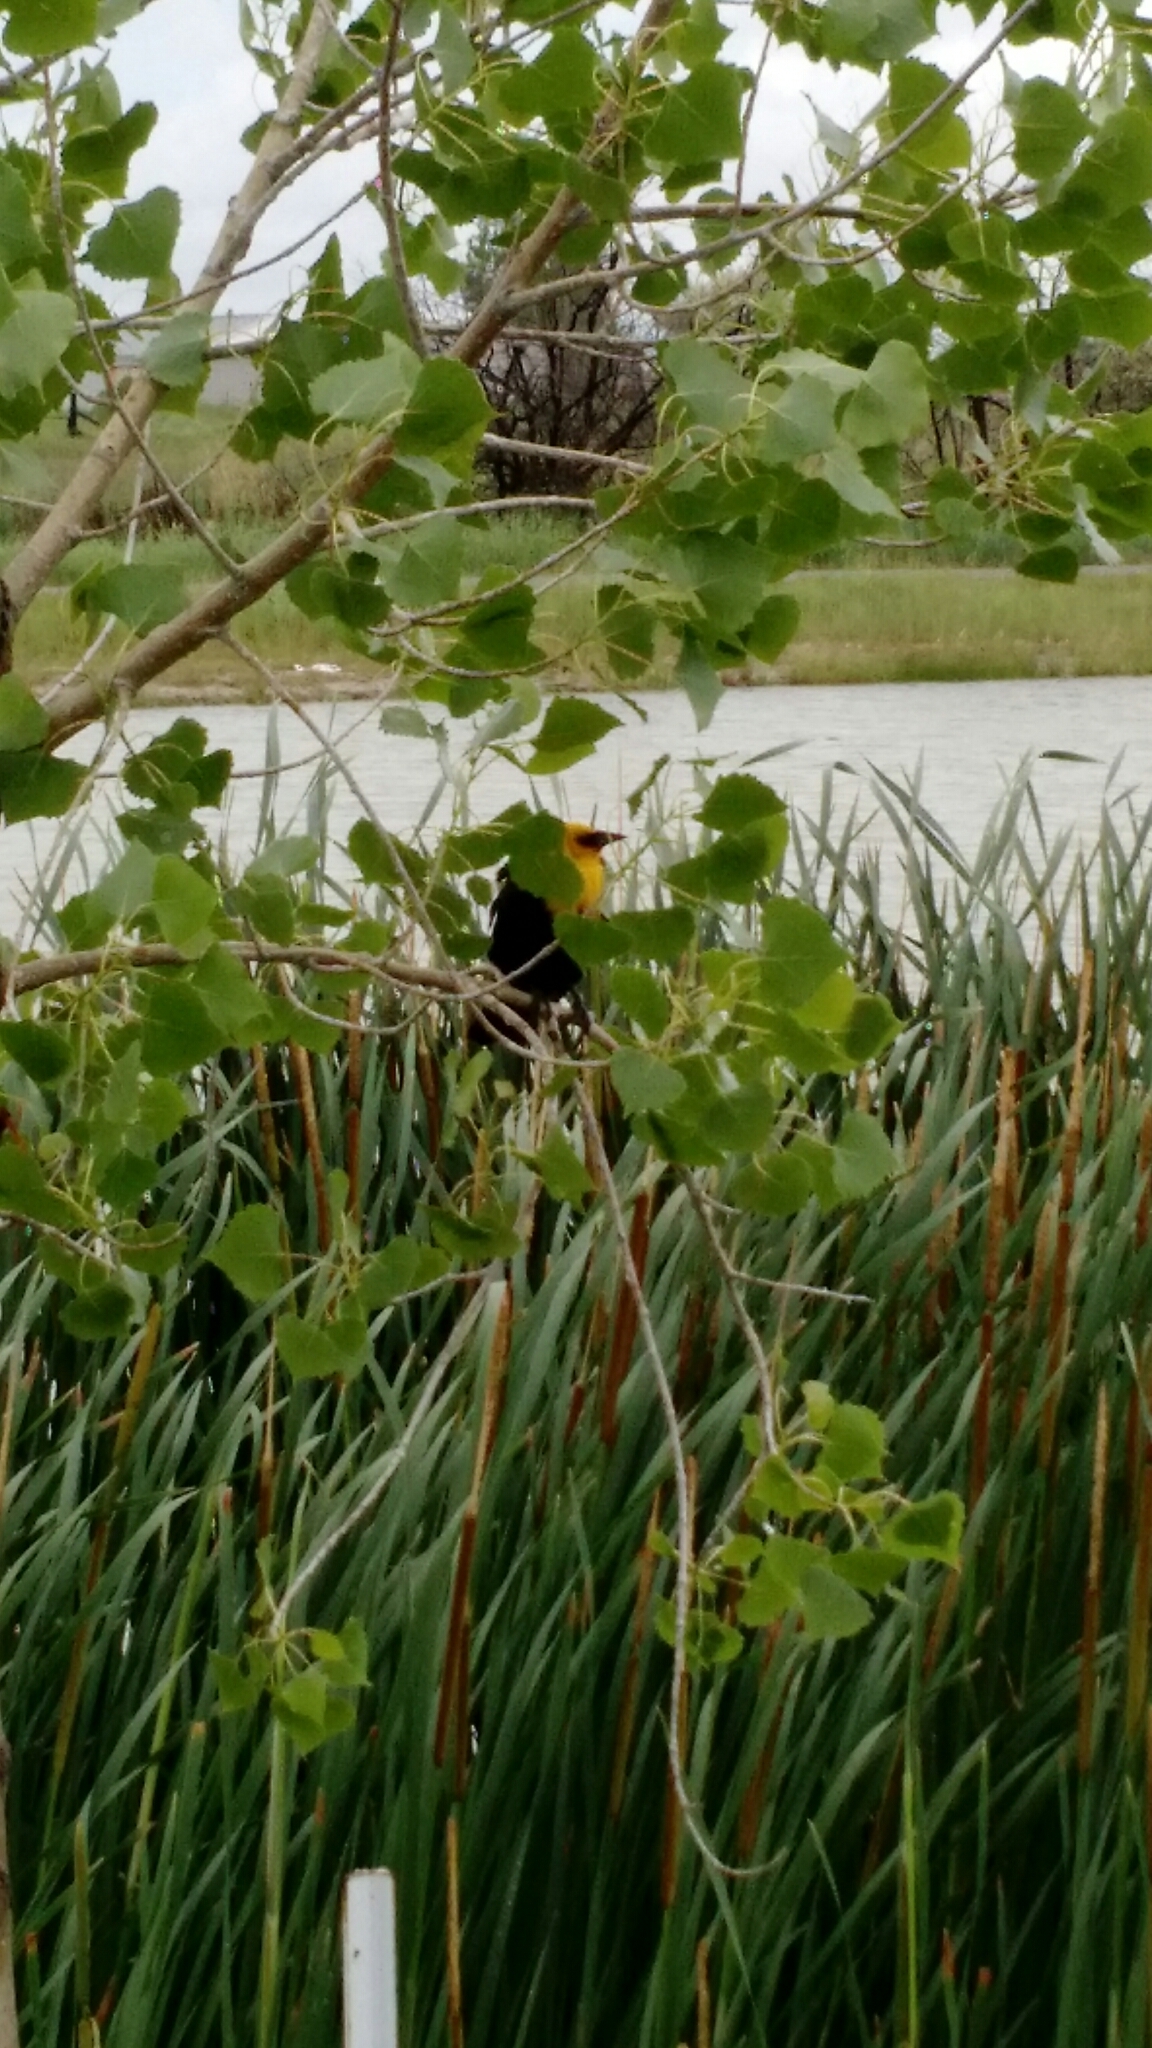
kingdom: Animalia
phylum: Chordata
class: Aves
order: Passeriformes
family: Icteridae
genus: Xanthocephalus
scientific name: Xanthocephalus xanthocephalus
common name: Yellow-headed blackbird
